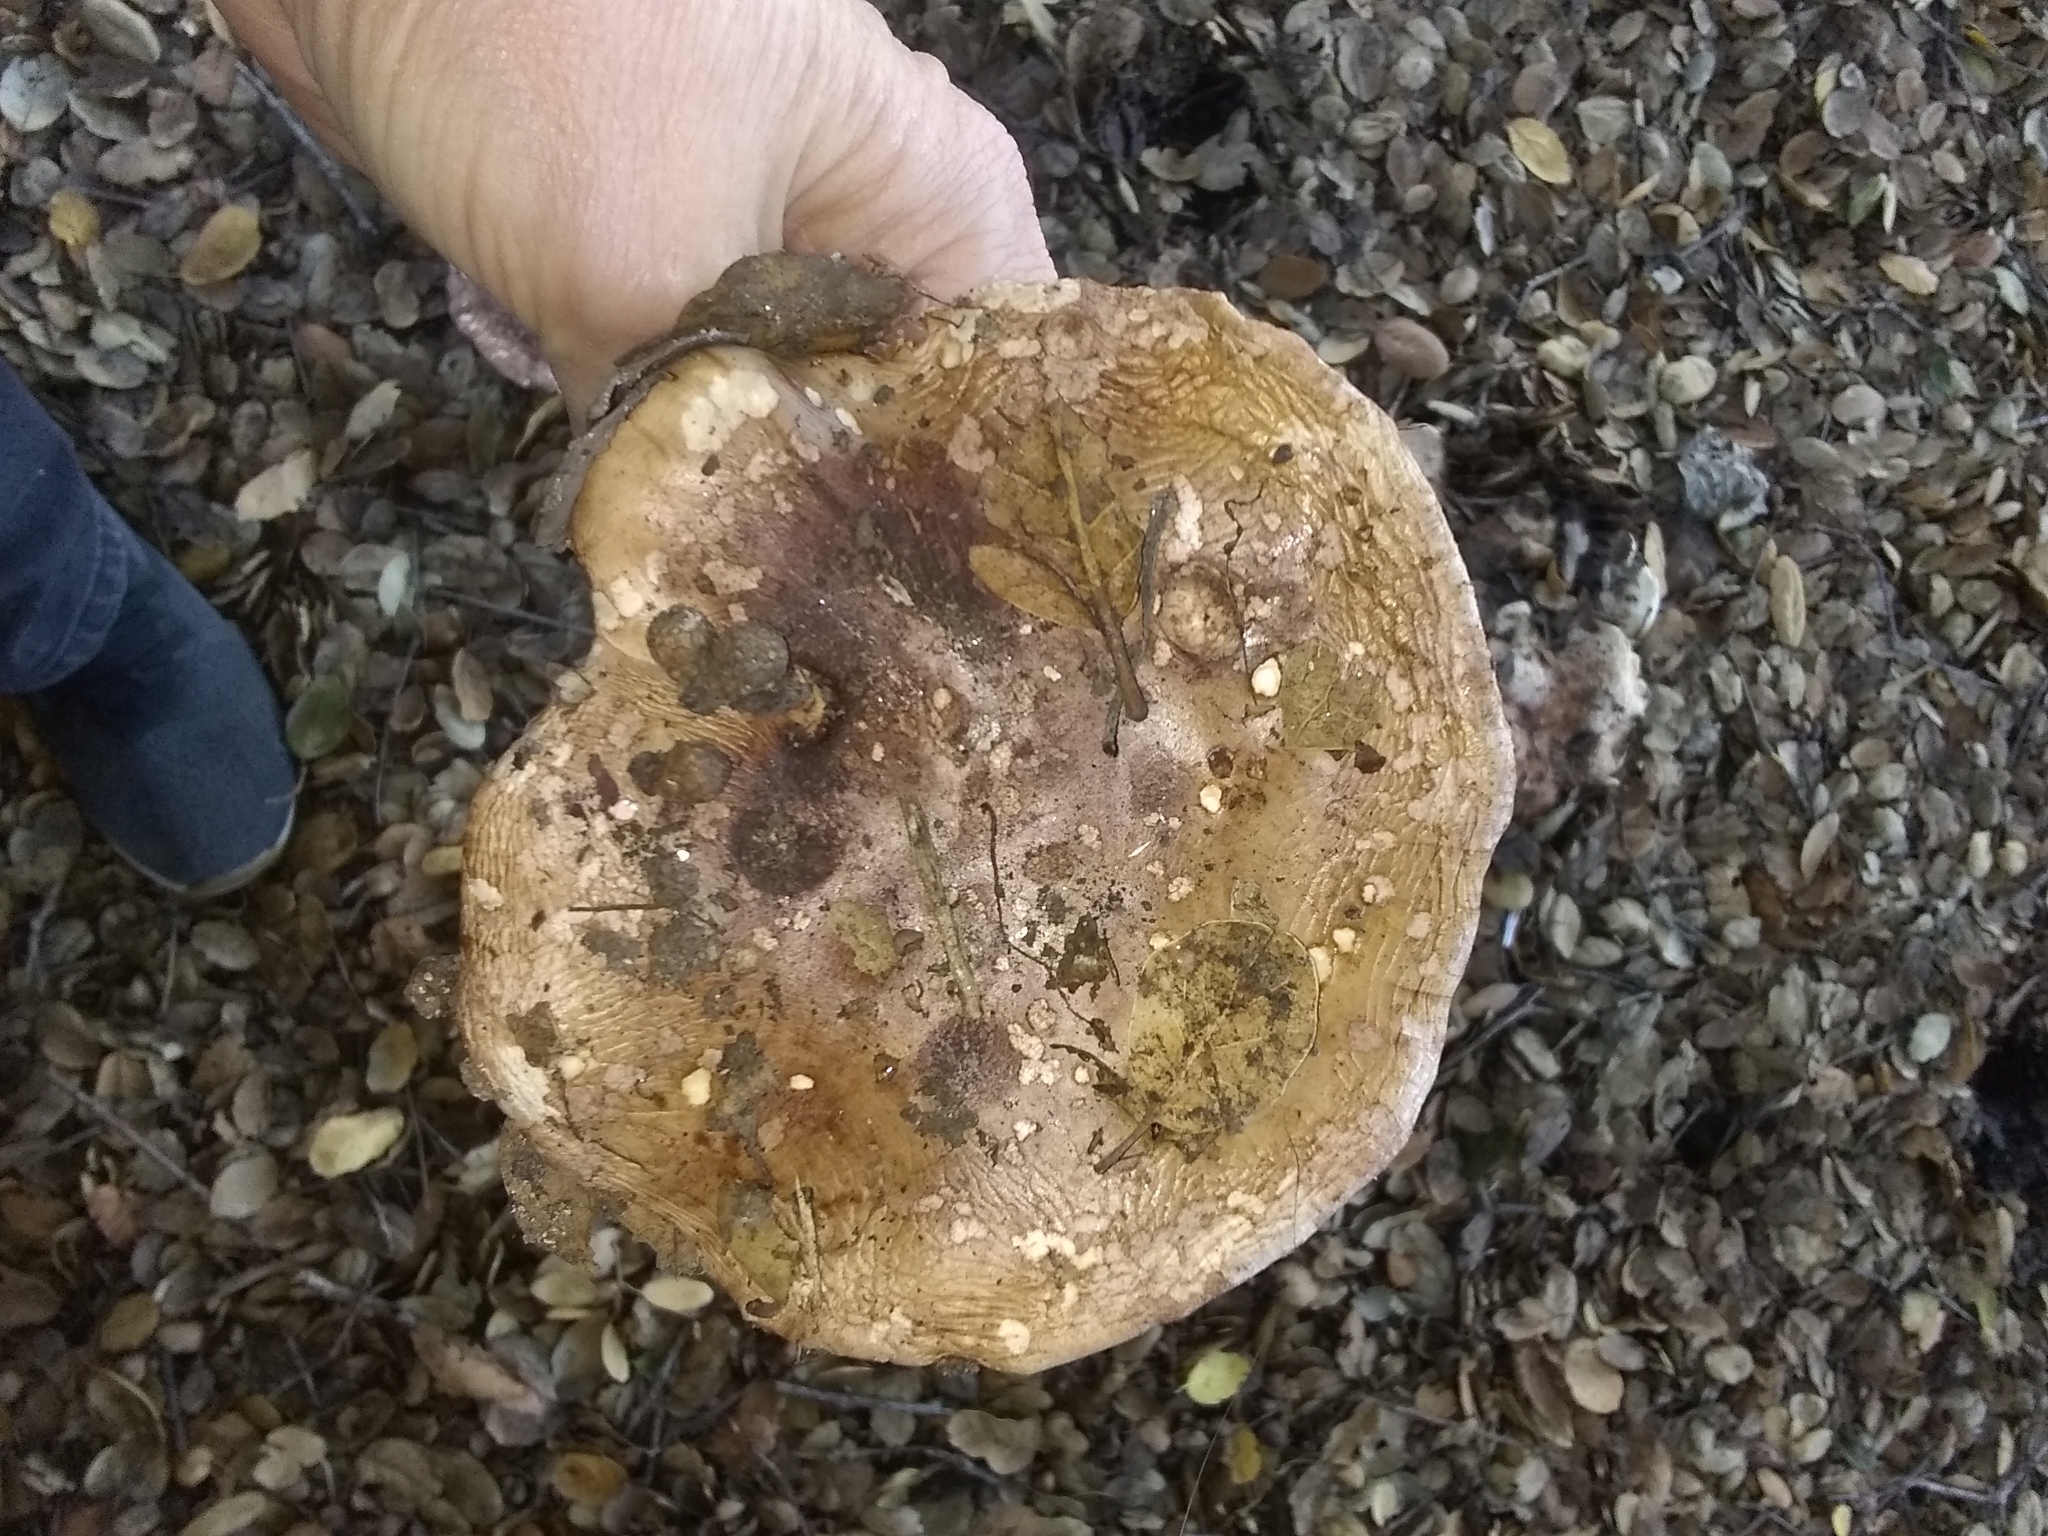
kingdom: Fungi
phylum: Basidiomycota
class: Agaricomycetes
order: Agaricales
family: Tricholomataceae
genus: Melanoleuca
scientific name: Melanoleuca dryophila
